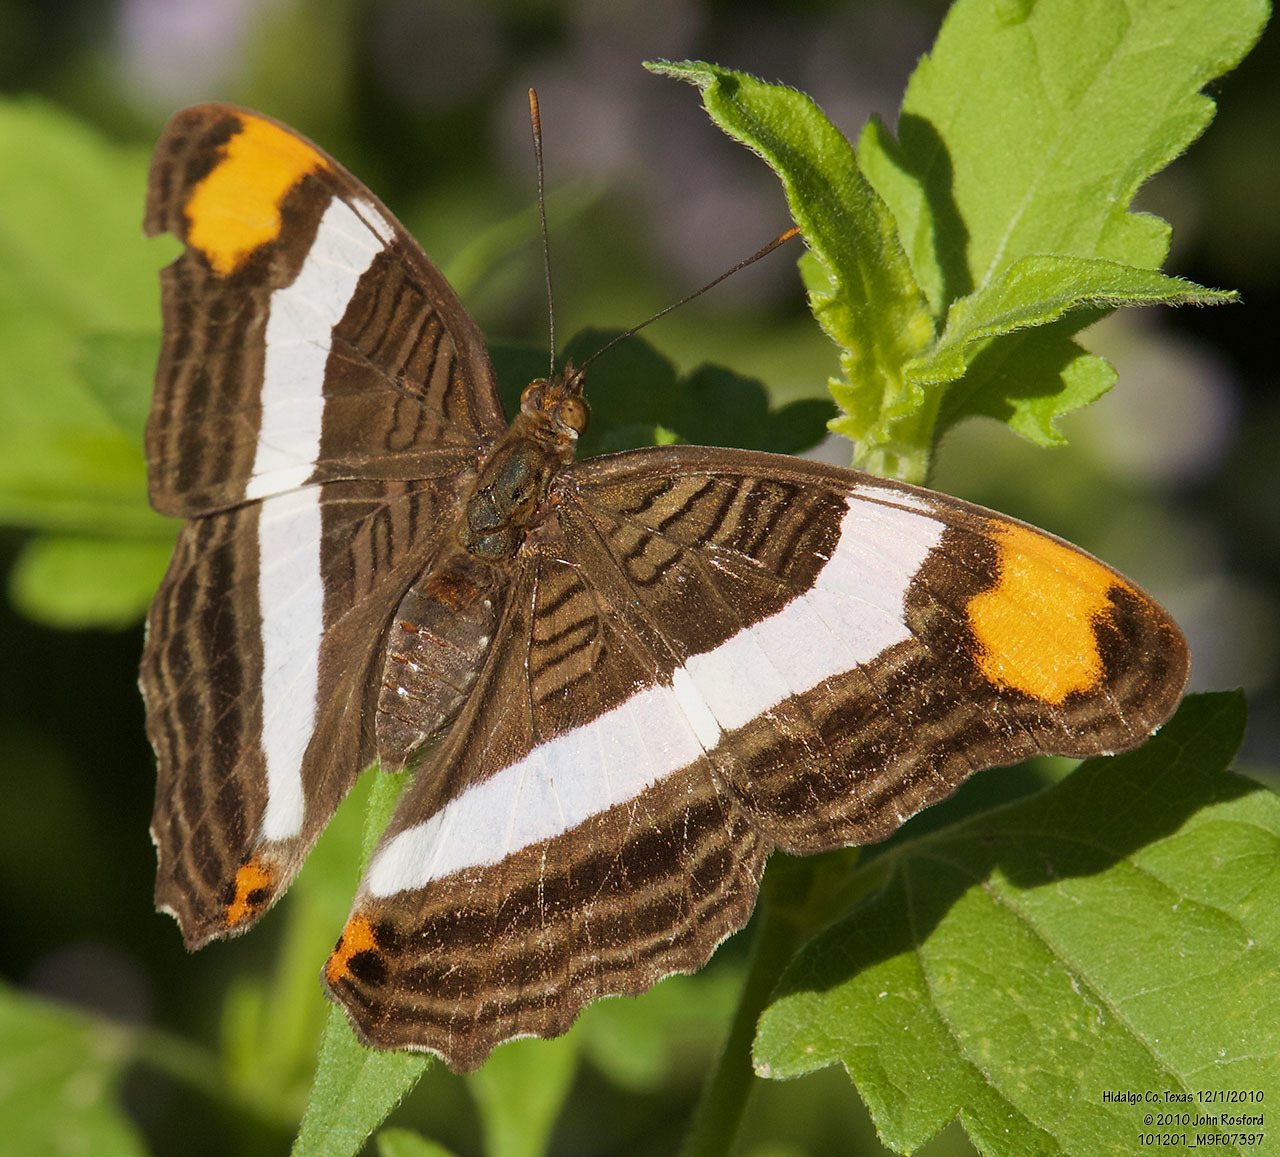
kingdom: Animalia
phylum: Arthropoda
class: Insecta
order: Lepidoptera
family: Nymphalidae
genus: Limenitis
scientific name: Limenitis fessonia
